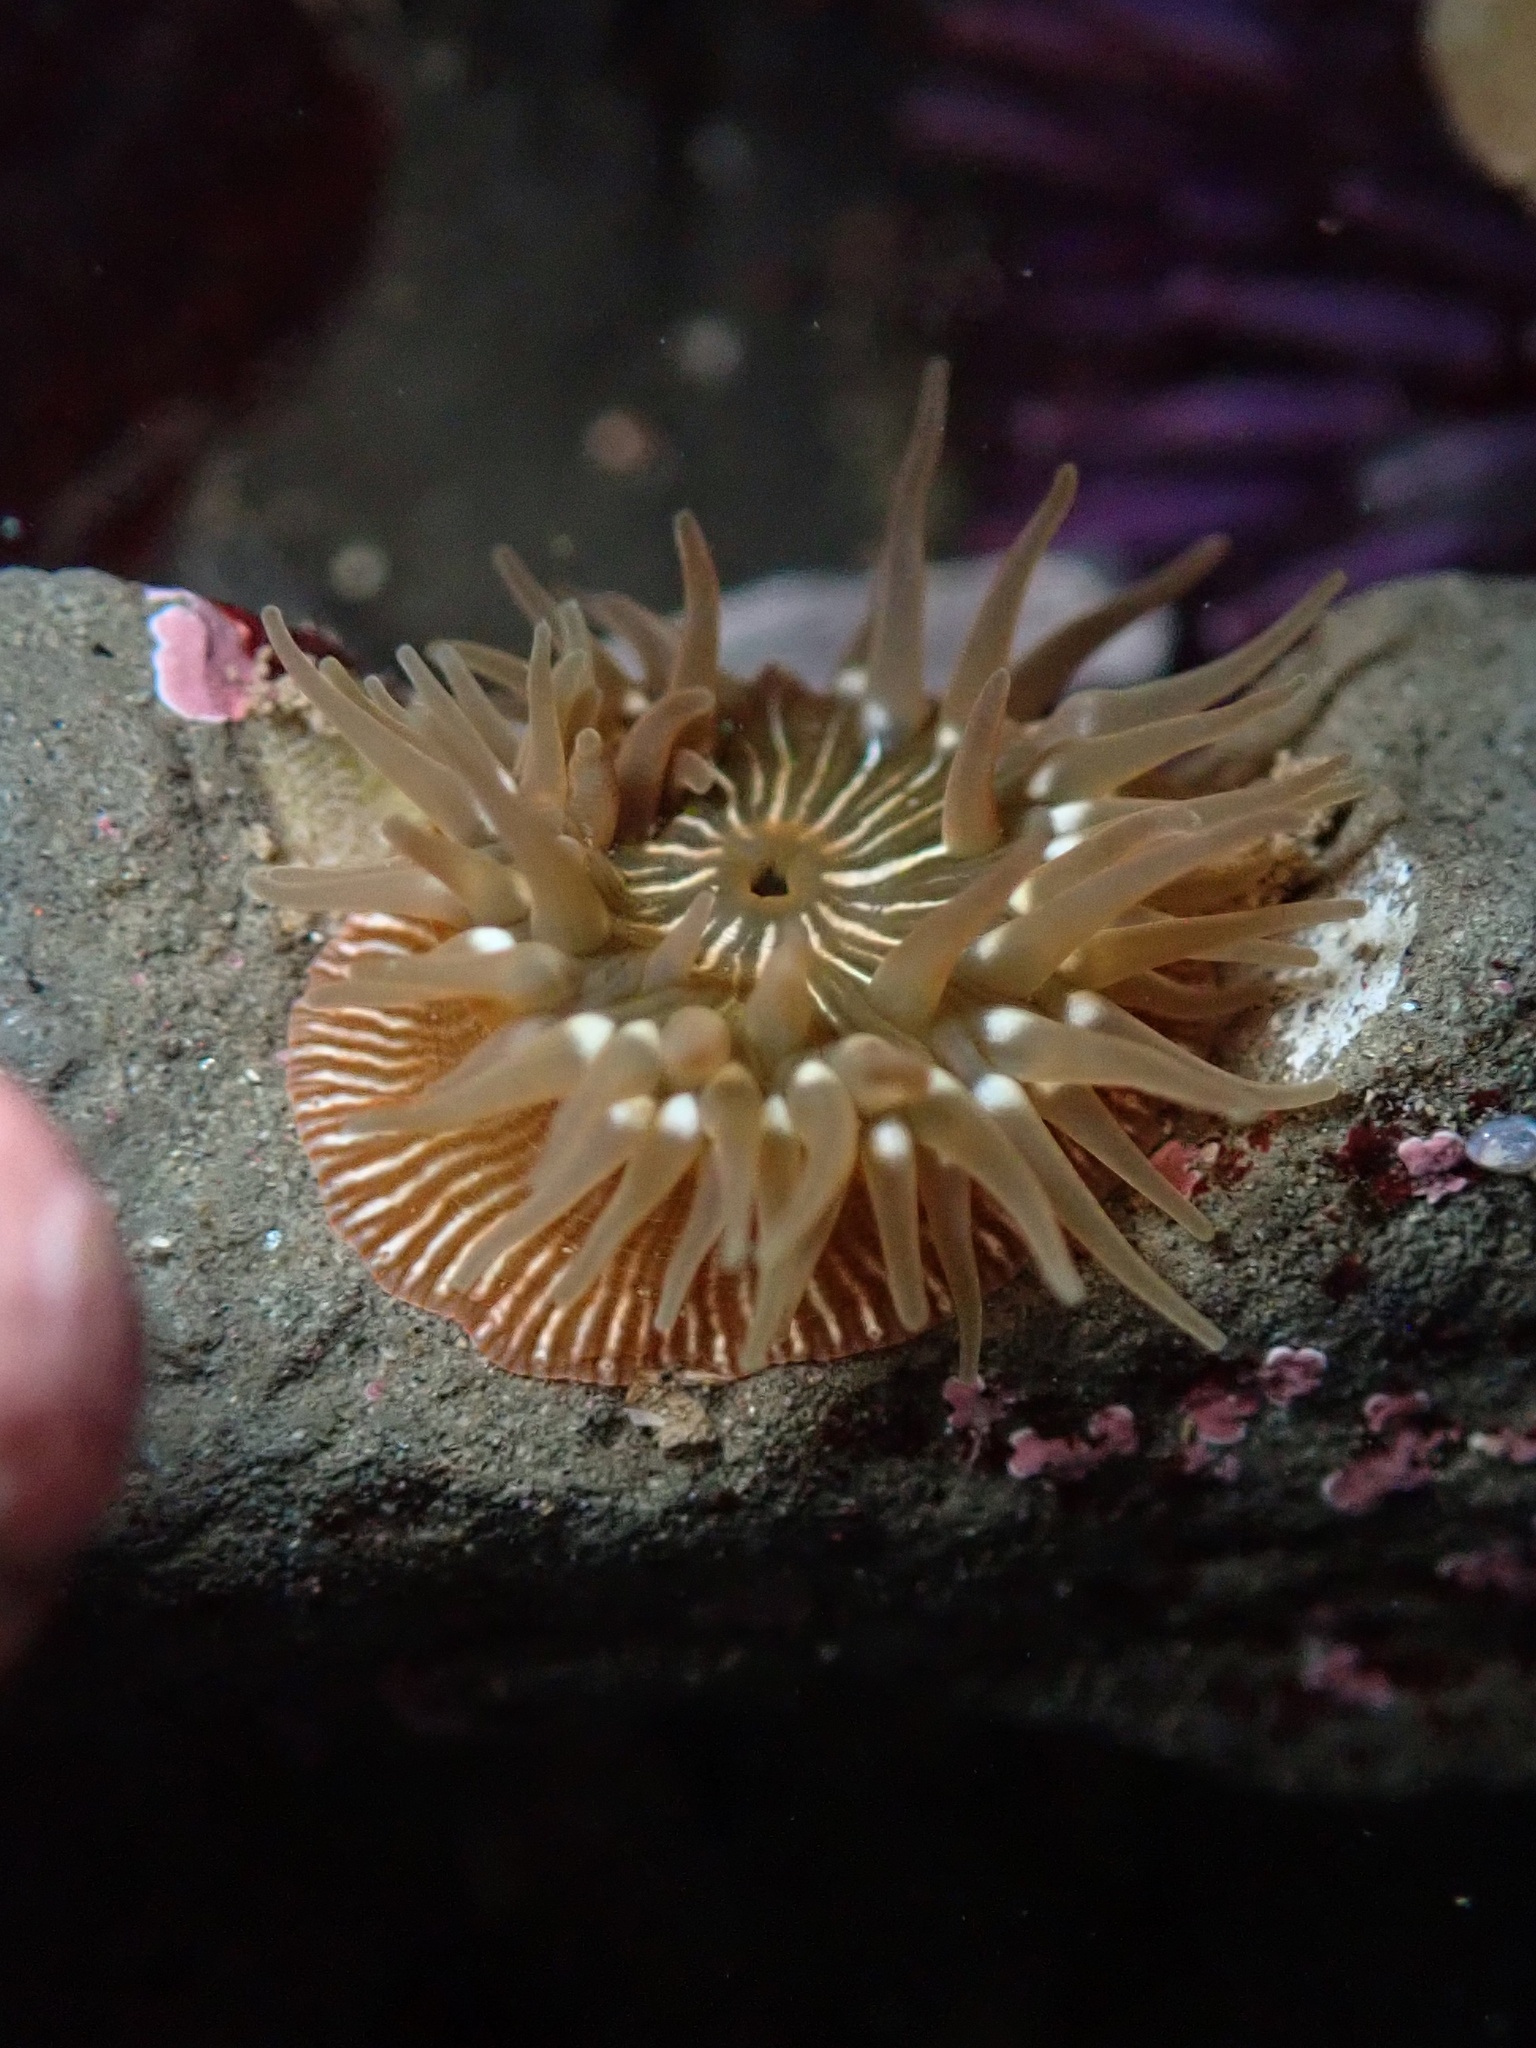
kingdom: Animalia
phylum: Cnidaria
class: Anthozoa
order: Actiniaria
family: Actiniidae
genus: Epiactis
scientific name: Epiactis prolifera
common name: Brooding anemone
